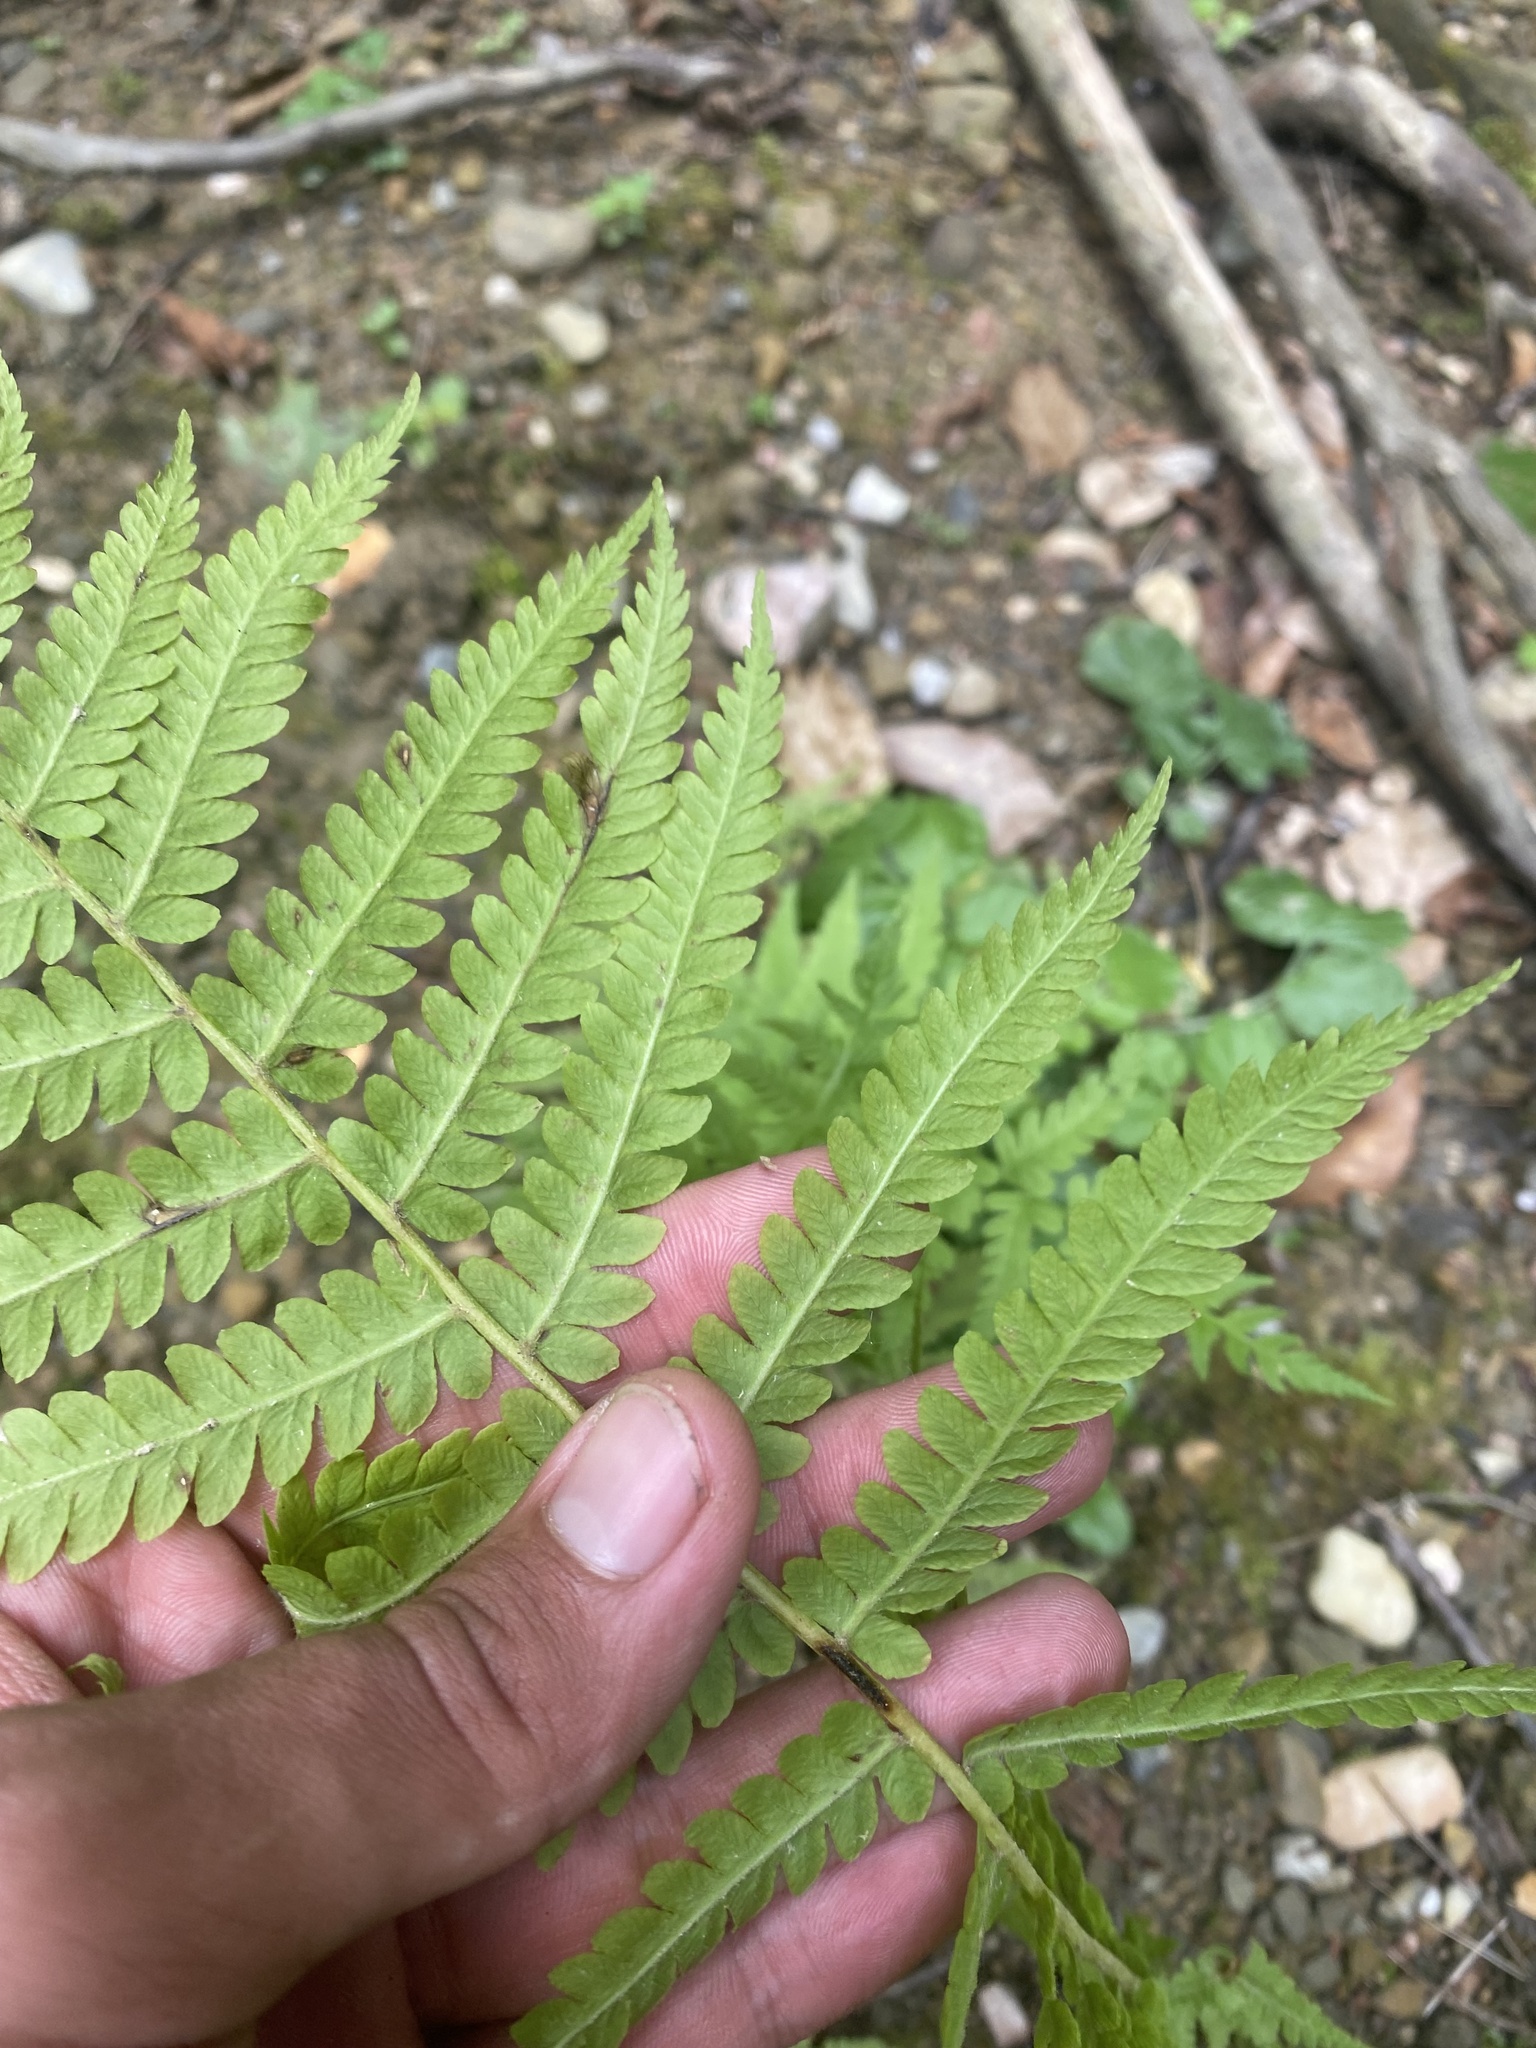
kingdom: Plantae
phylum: Tracheophyta
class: Polypodiopsida
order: Polypodiales
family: Onocleaceae
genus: Matteuccia
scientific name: Matteuccia struthiopteris
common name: Ostrich fern
